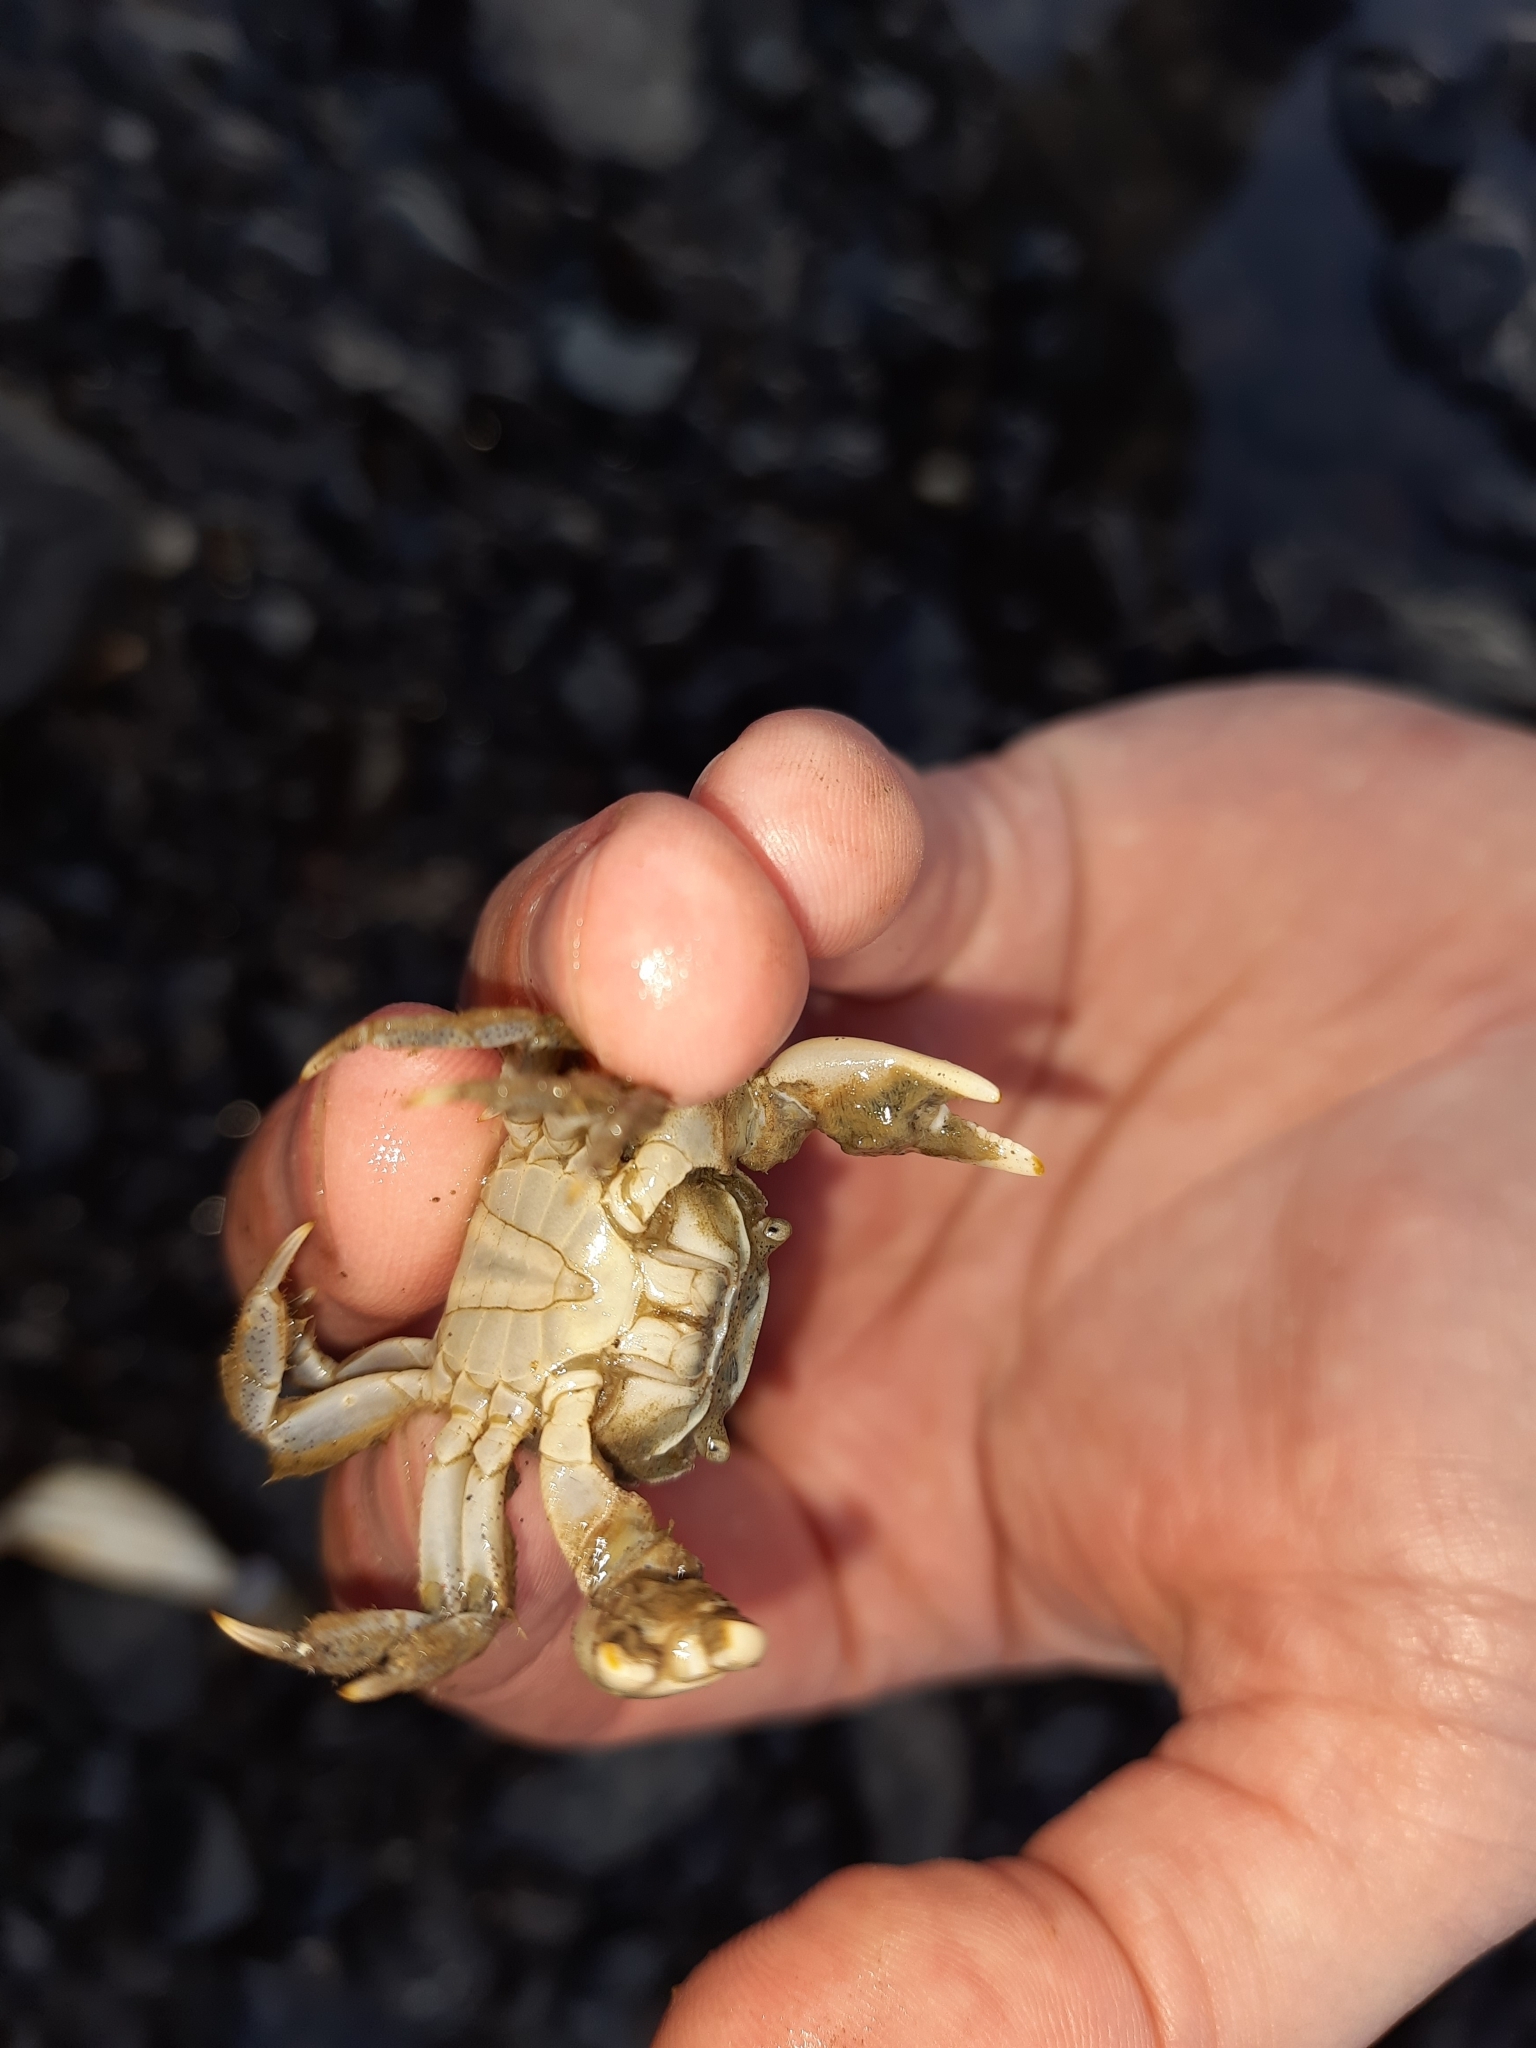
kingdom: Animalia
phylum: Arthropoda
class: Malacostraca
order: Decapoda
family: Varunidae
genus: Hemigrapsus
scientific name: Hemigrapsus crenulatus
